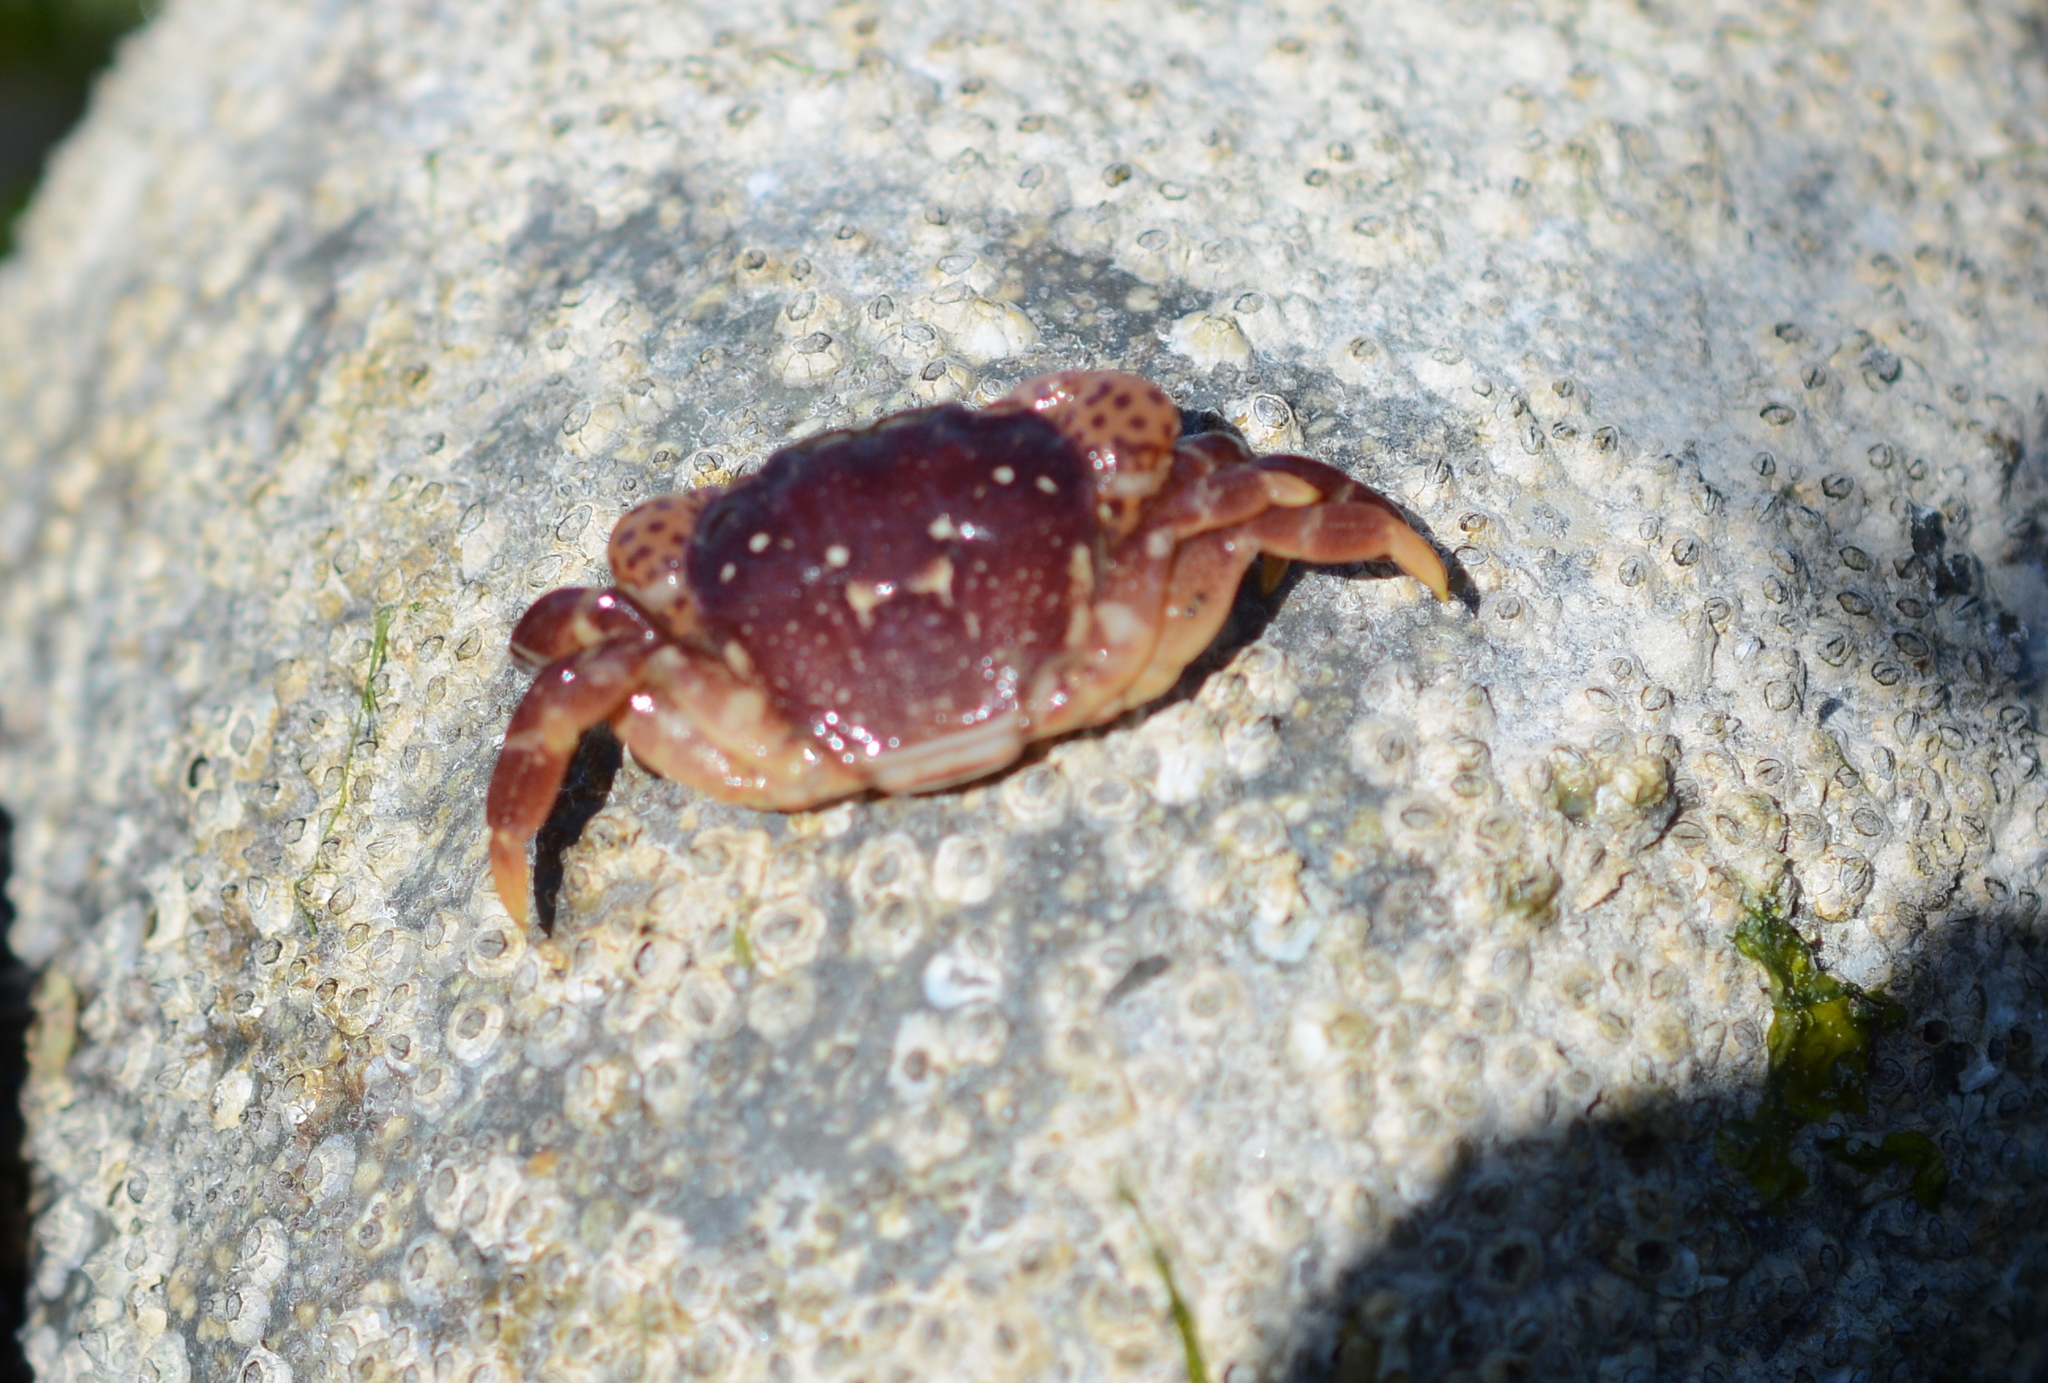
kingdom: Animalia
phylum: Arthropoda
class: Malacostraca
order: Decapoda
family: Varunidae
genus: Hemigrapsus
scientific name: Hemigrapsus nudus
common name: Purple shore crab
